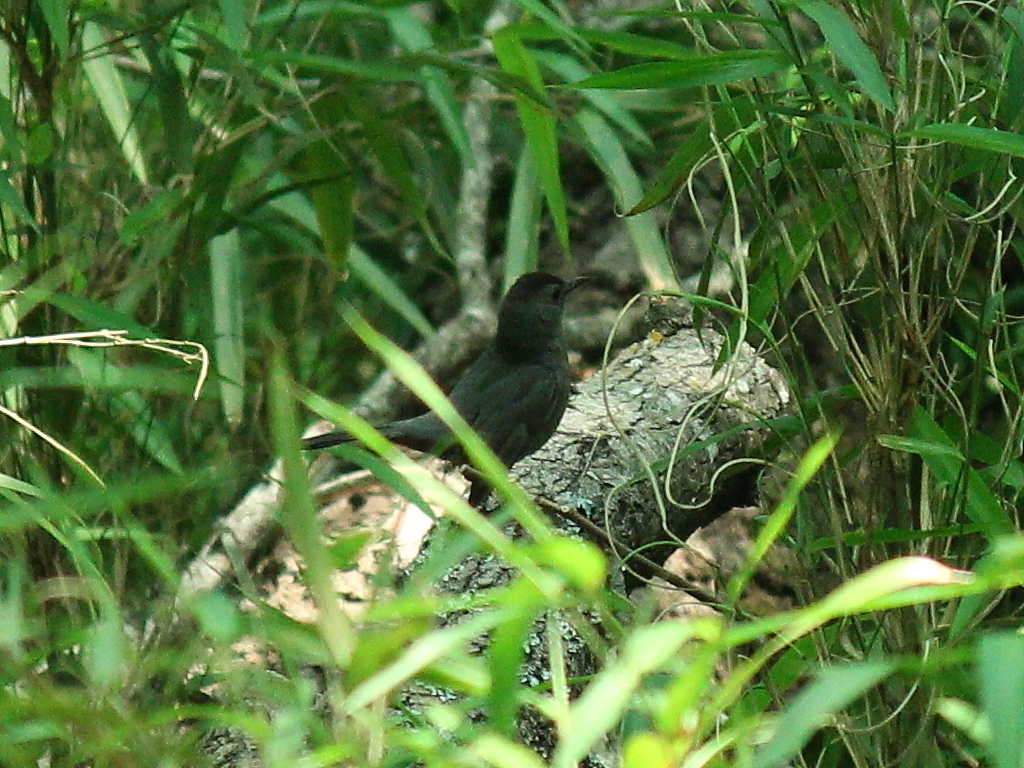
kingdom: Animalia
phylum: Chordata
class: Aves
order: Passeriformes
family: Mimidae
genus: Dumetella
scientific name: Dumetella carolinensis
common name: Gray catbird
